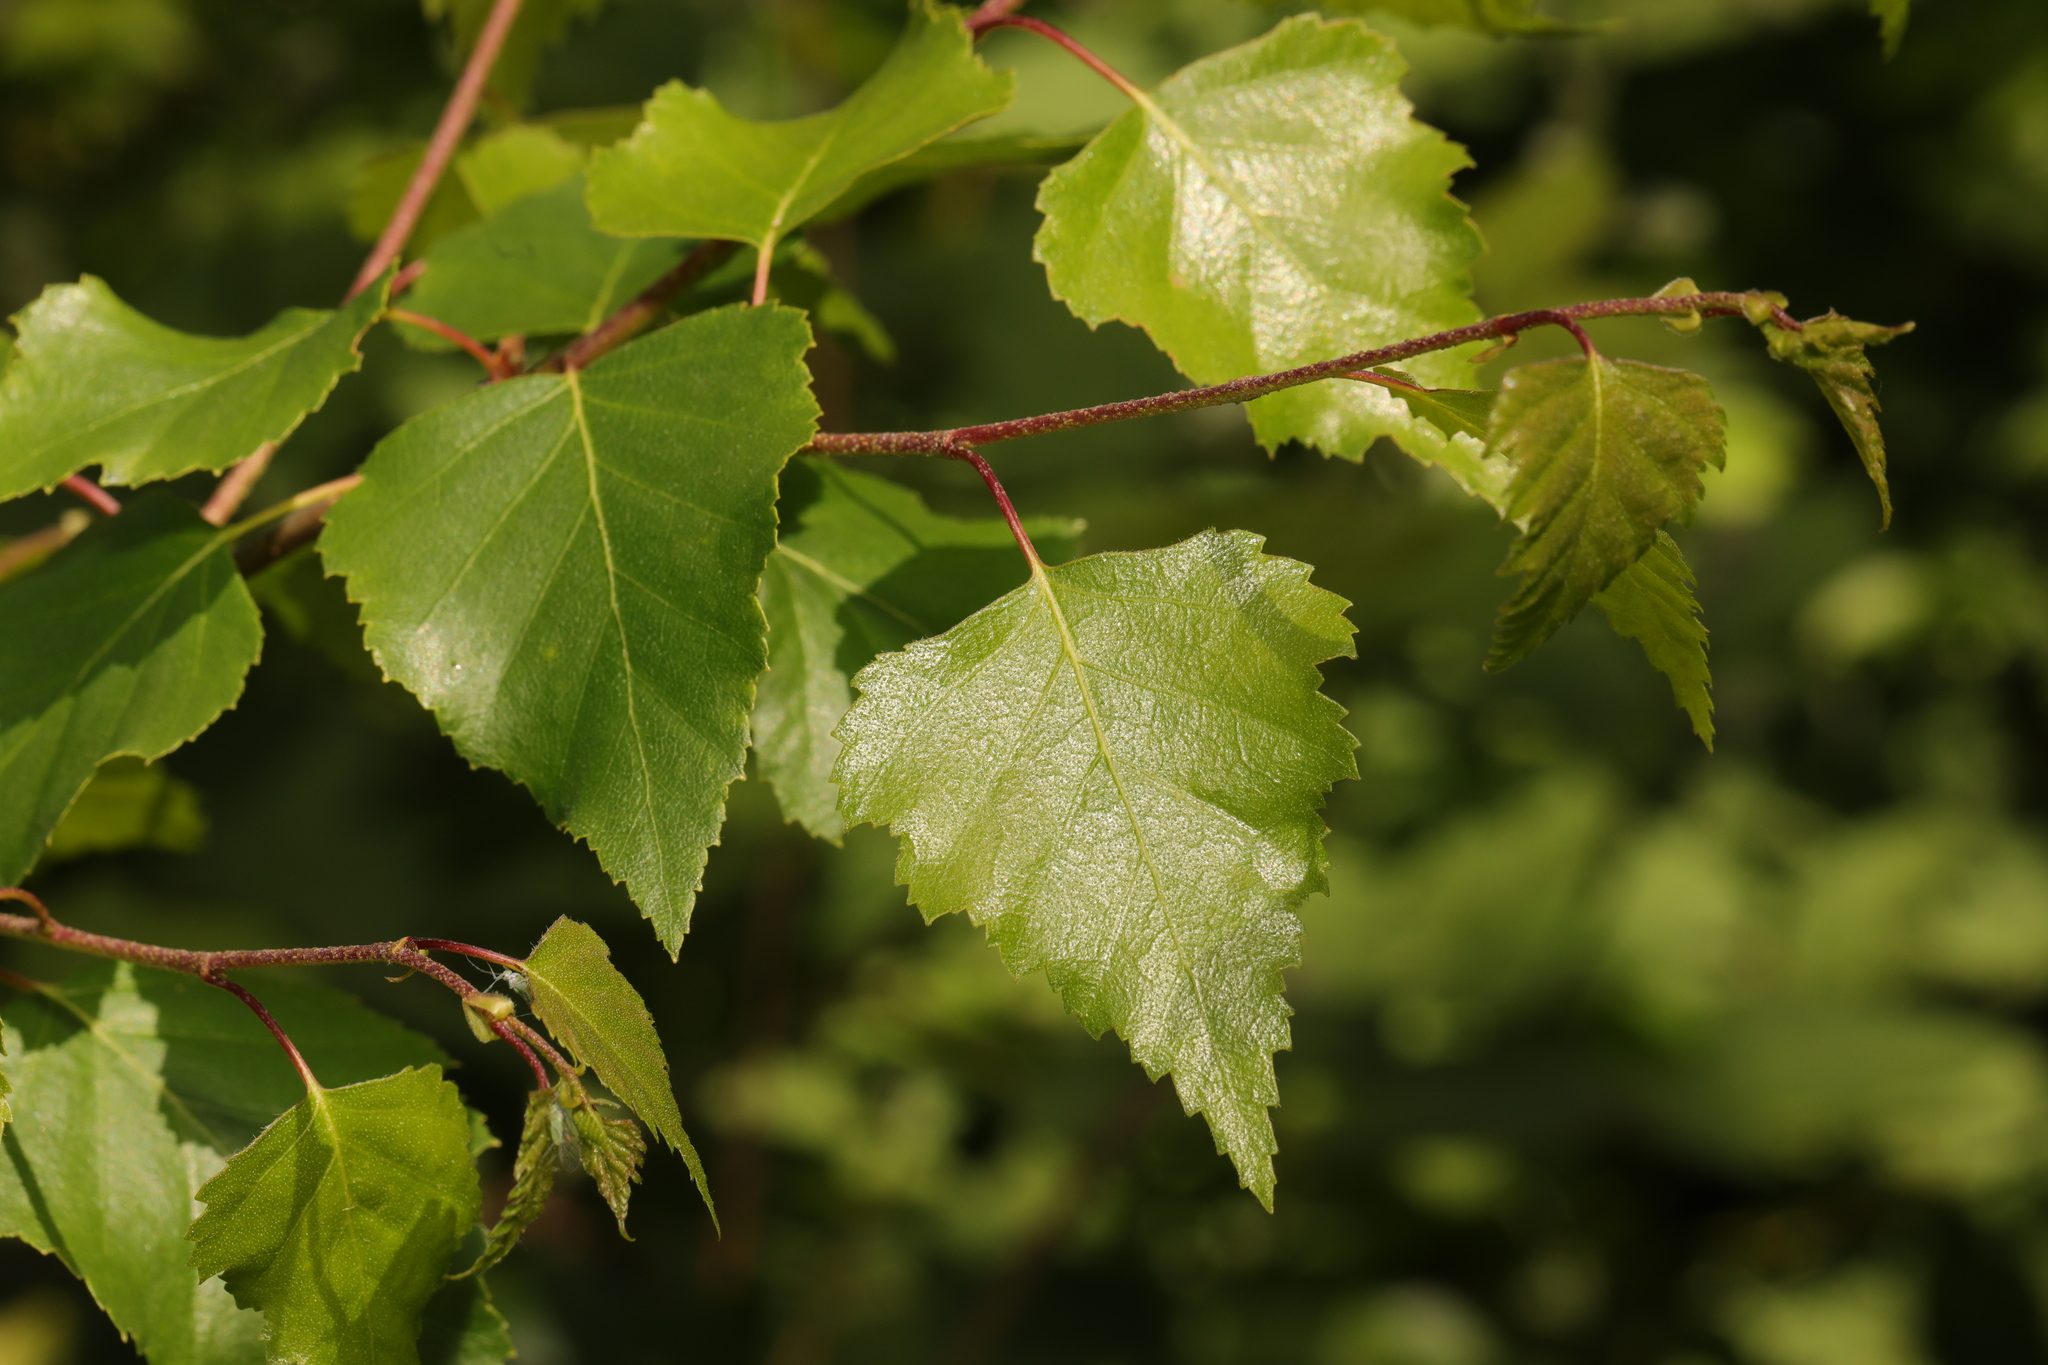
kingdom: Plantae
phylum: Tracheophyta
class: Magnoliopsida
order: Fagales
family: Betulaceae
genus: Betula
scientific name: Betula pendula
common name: Silver birch
